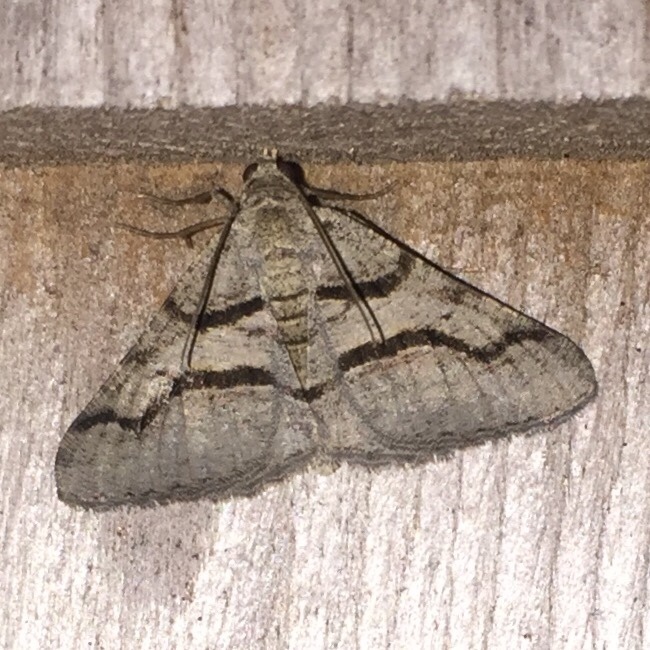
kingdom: Animalia
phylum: Arthropoda
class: Insecta
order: Lepidoptera
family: Geometridae
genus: Digrammia
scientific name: Digrammia continuata
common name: Curve-lined angle
